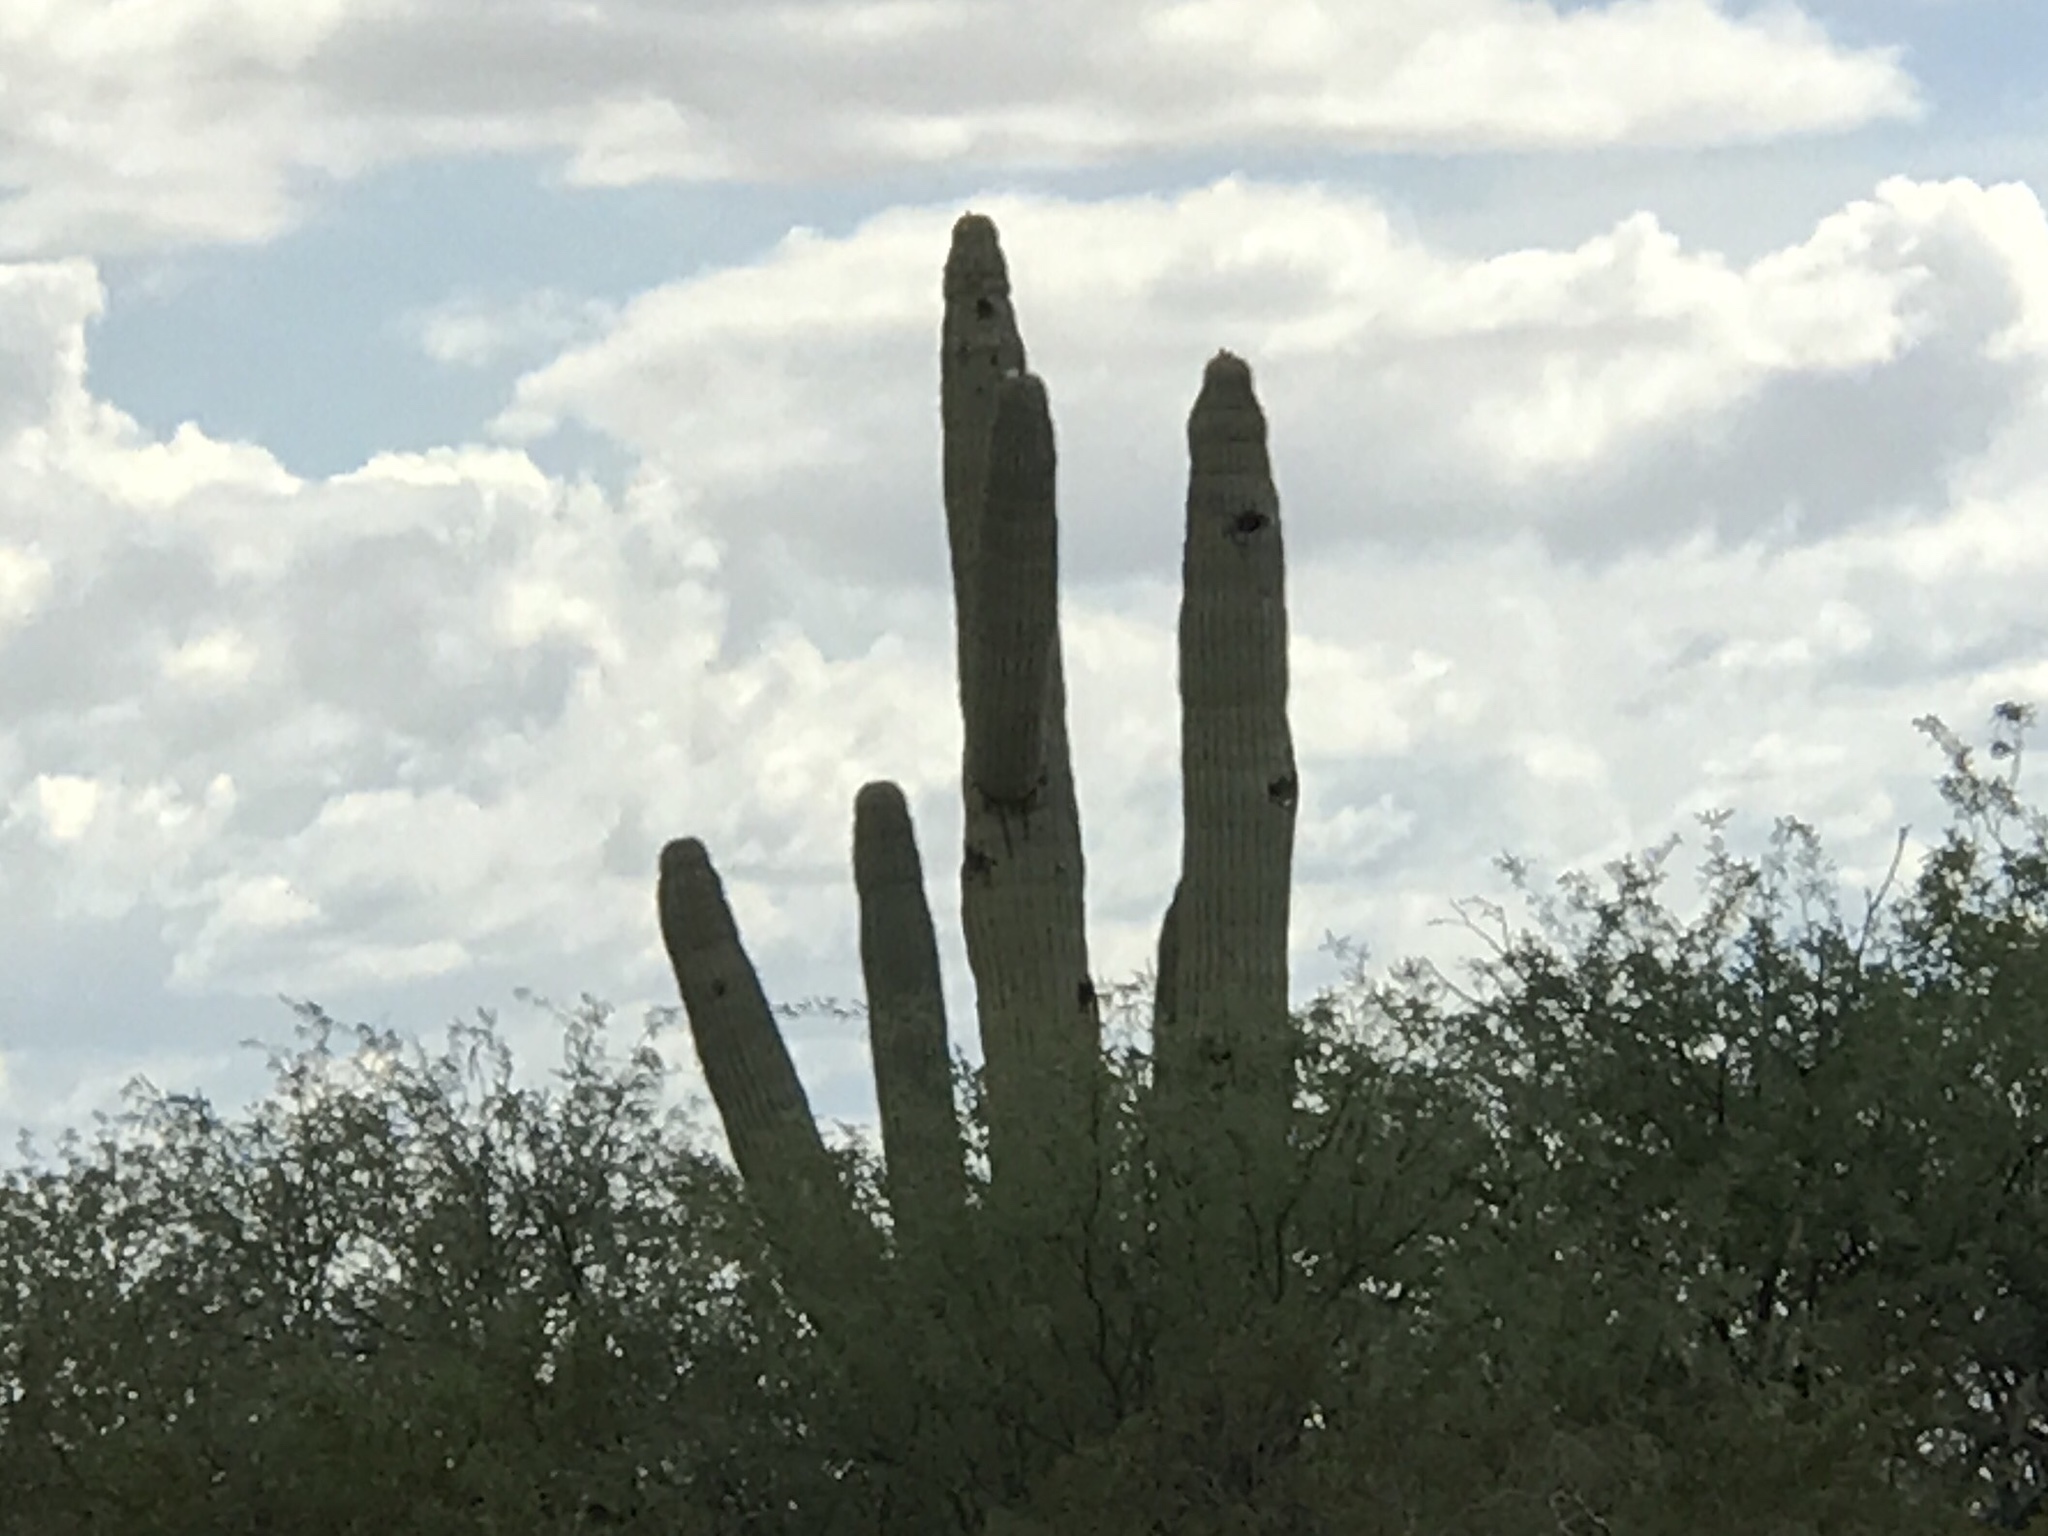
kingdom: Plantae
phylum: Tracheophyta
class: Magnoliopsida
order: Caryophyllales
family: Cactaceae
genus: Carnegiea
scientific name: Carnegiea gigantea
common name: Saguaro
